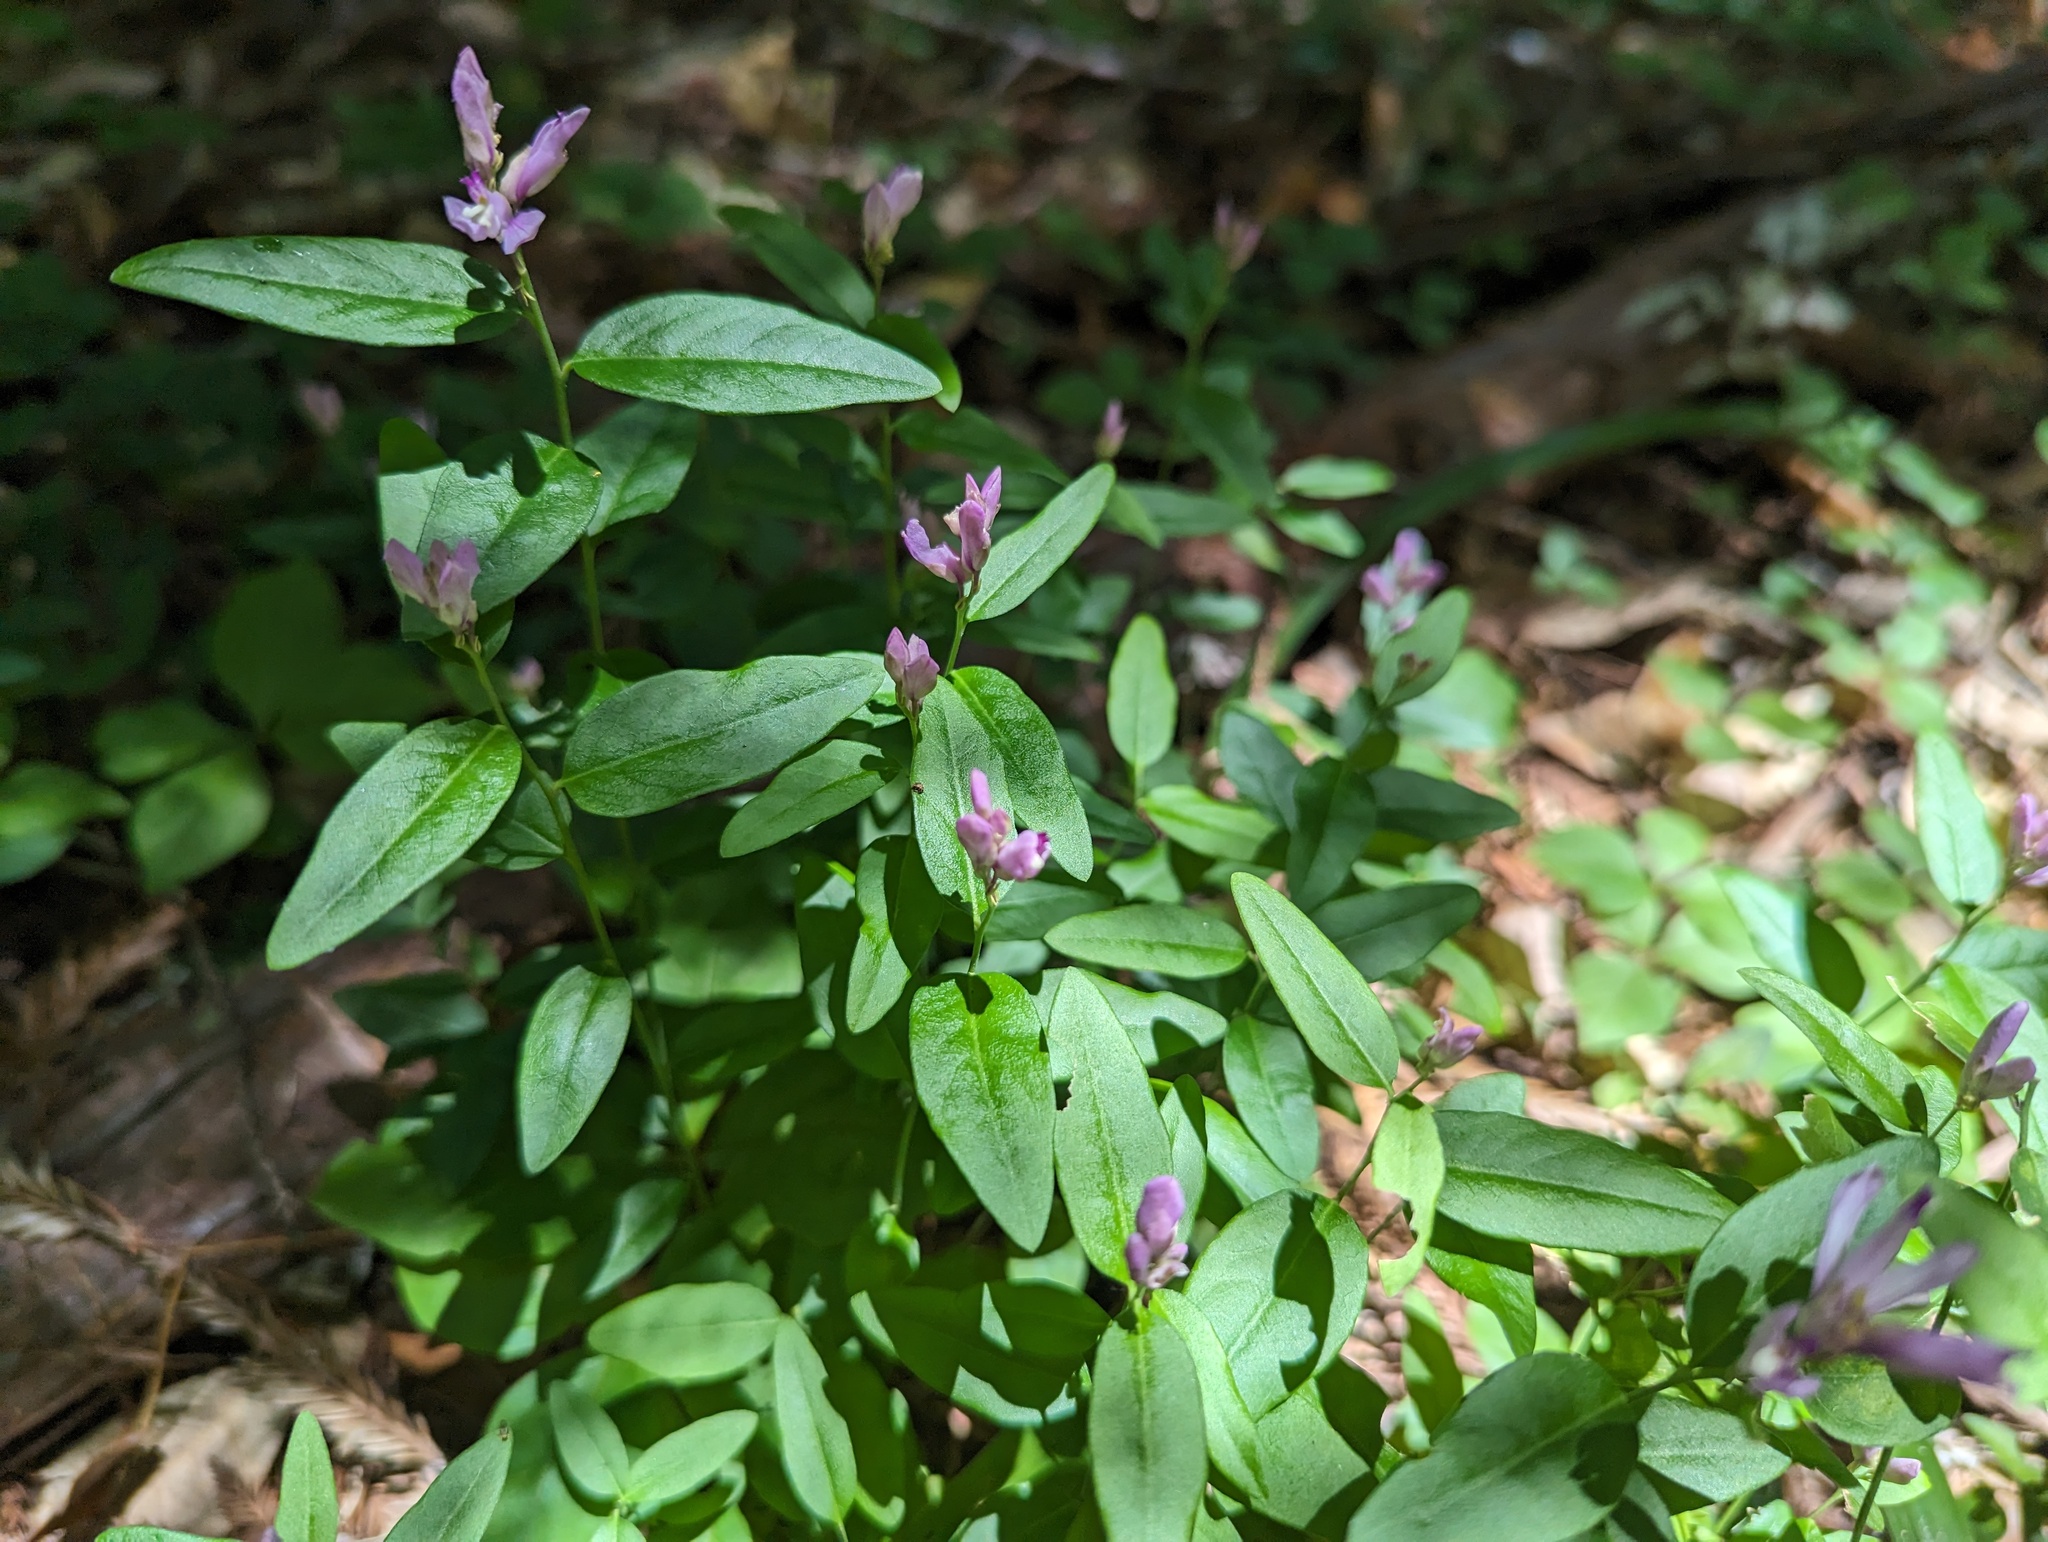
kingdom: Plantae
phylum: Tracheophyta
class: Magnoliopsida
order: Fabales
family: Polygalaceae
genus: Rhinotropis
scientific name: Rhinotropis californica
